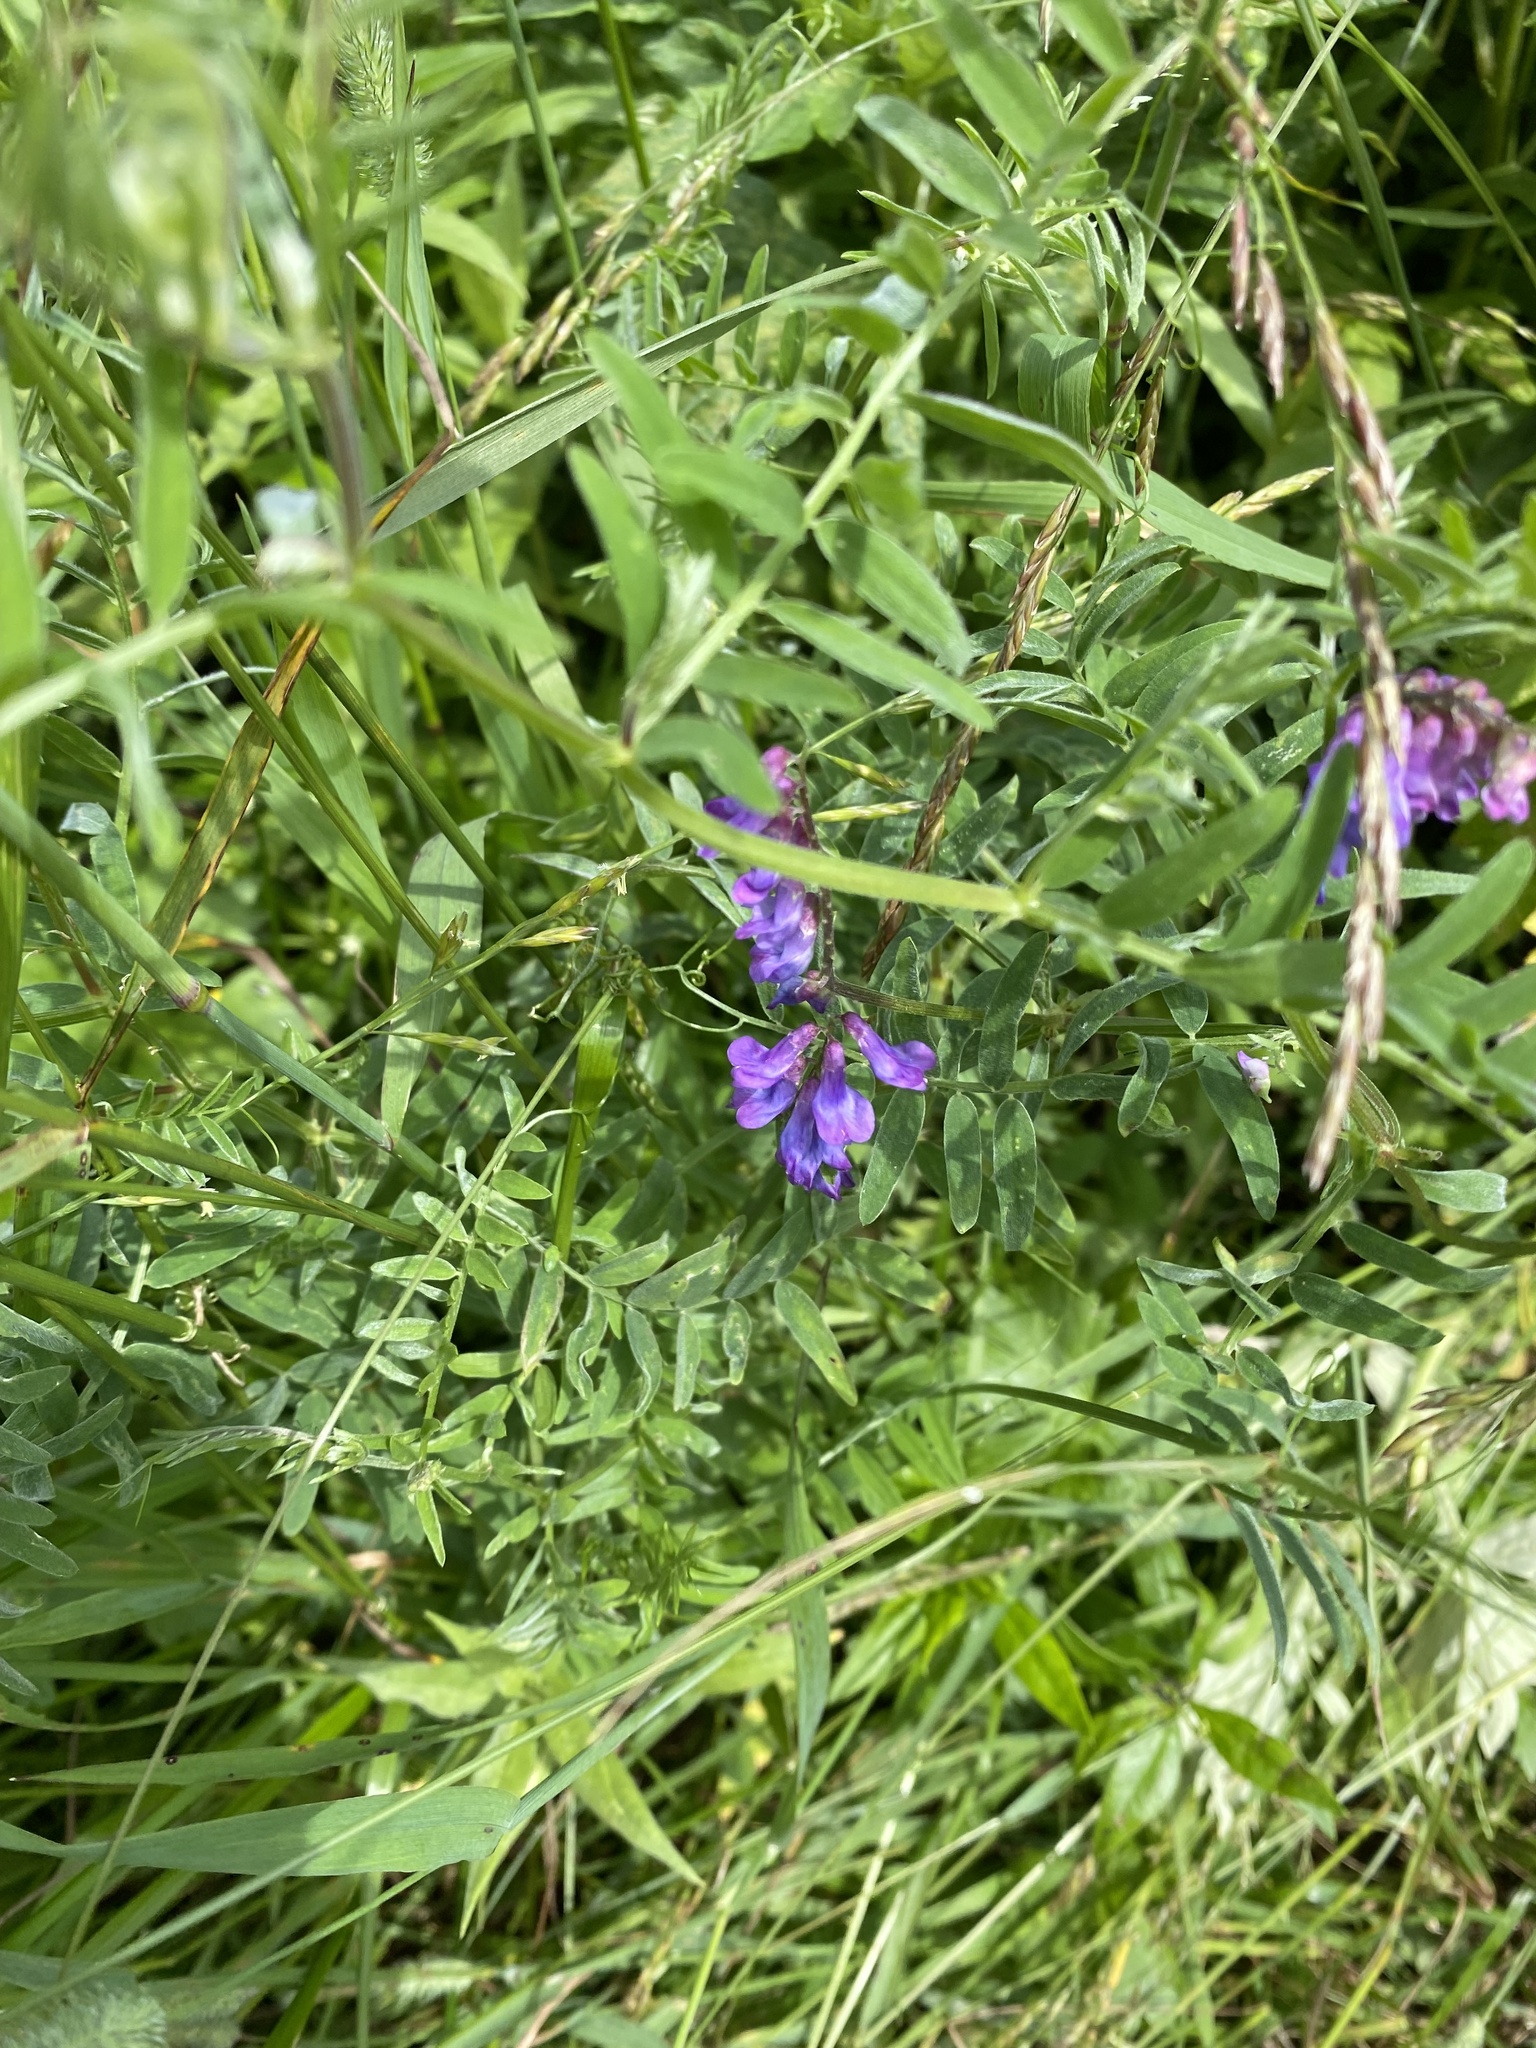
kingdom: Plantae
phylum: Tracheophyta
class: Magnoliopsida
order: Fabales
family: Fabaceae
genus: Vicia
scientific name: Vicia cracca
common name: Bird vetch
